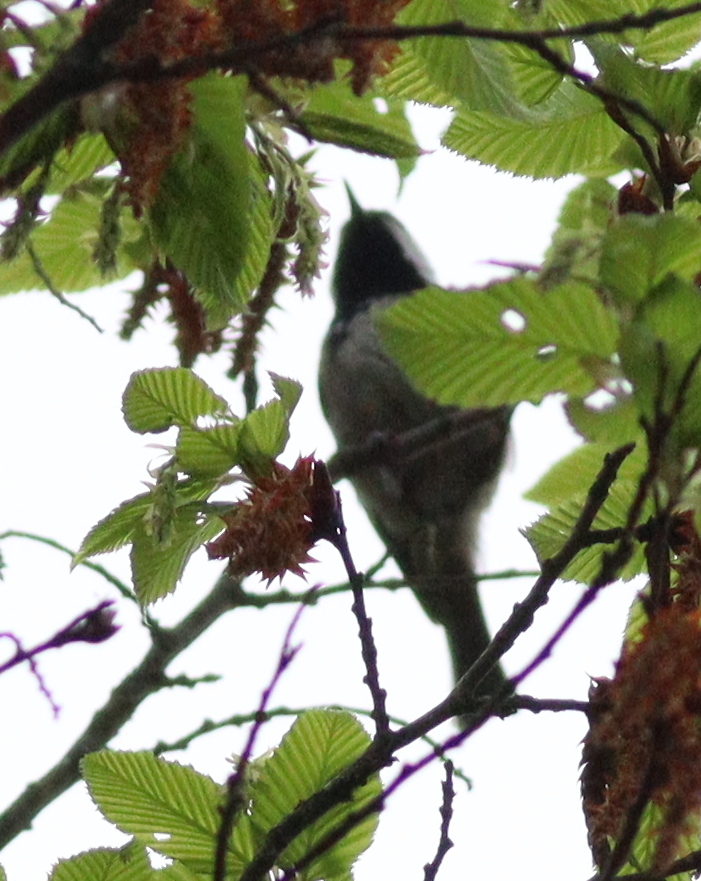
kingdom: Animalia
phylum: Chordata
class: Aves
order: Passeriformes
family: Paridae
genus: Periparus
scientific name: Periparus ater
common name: Coal tit
